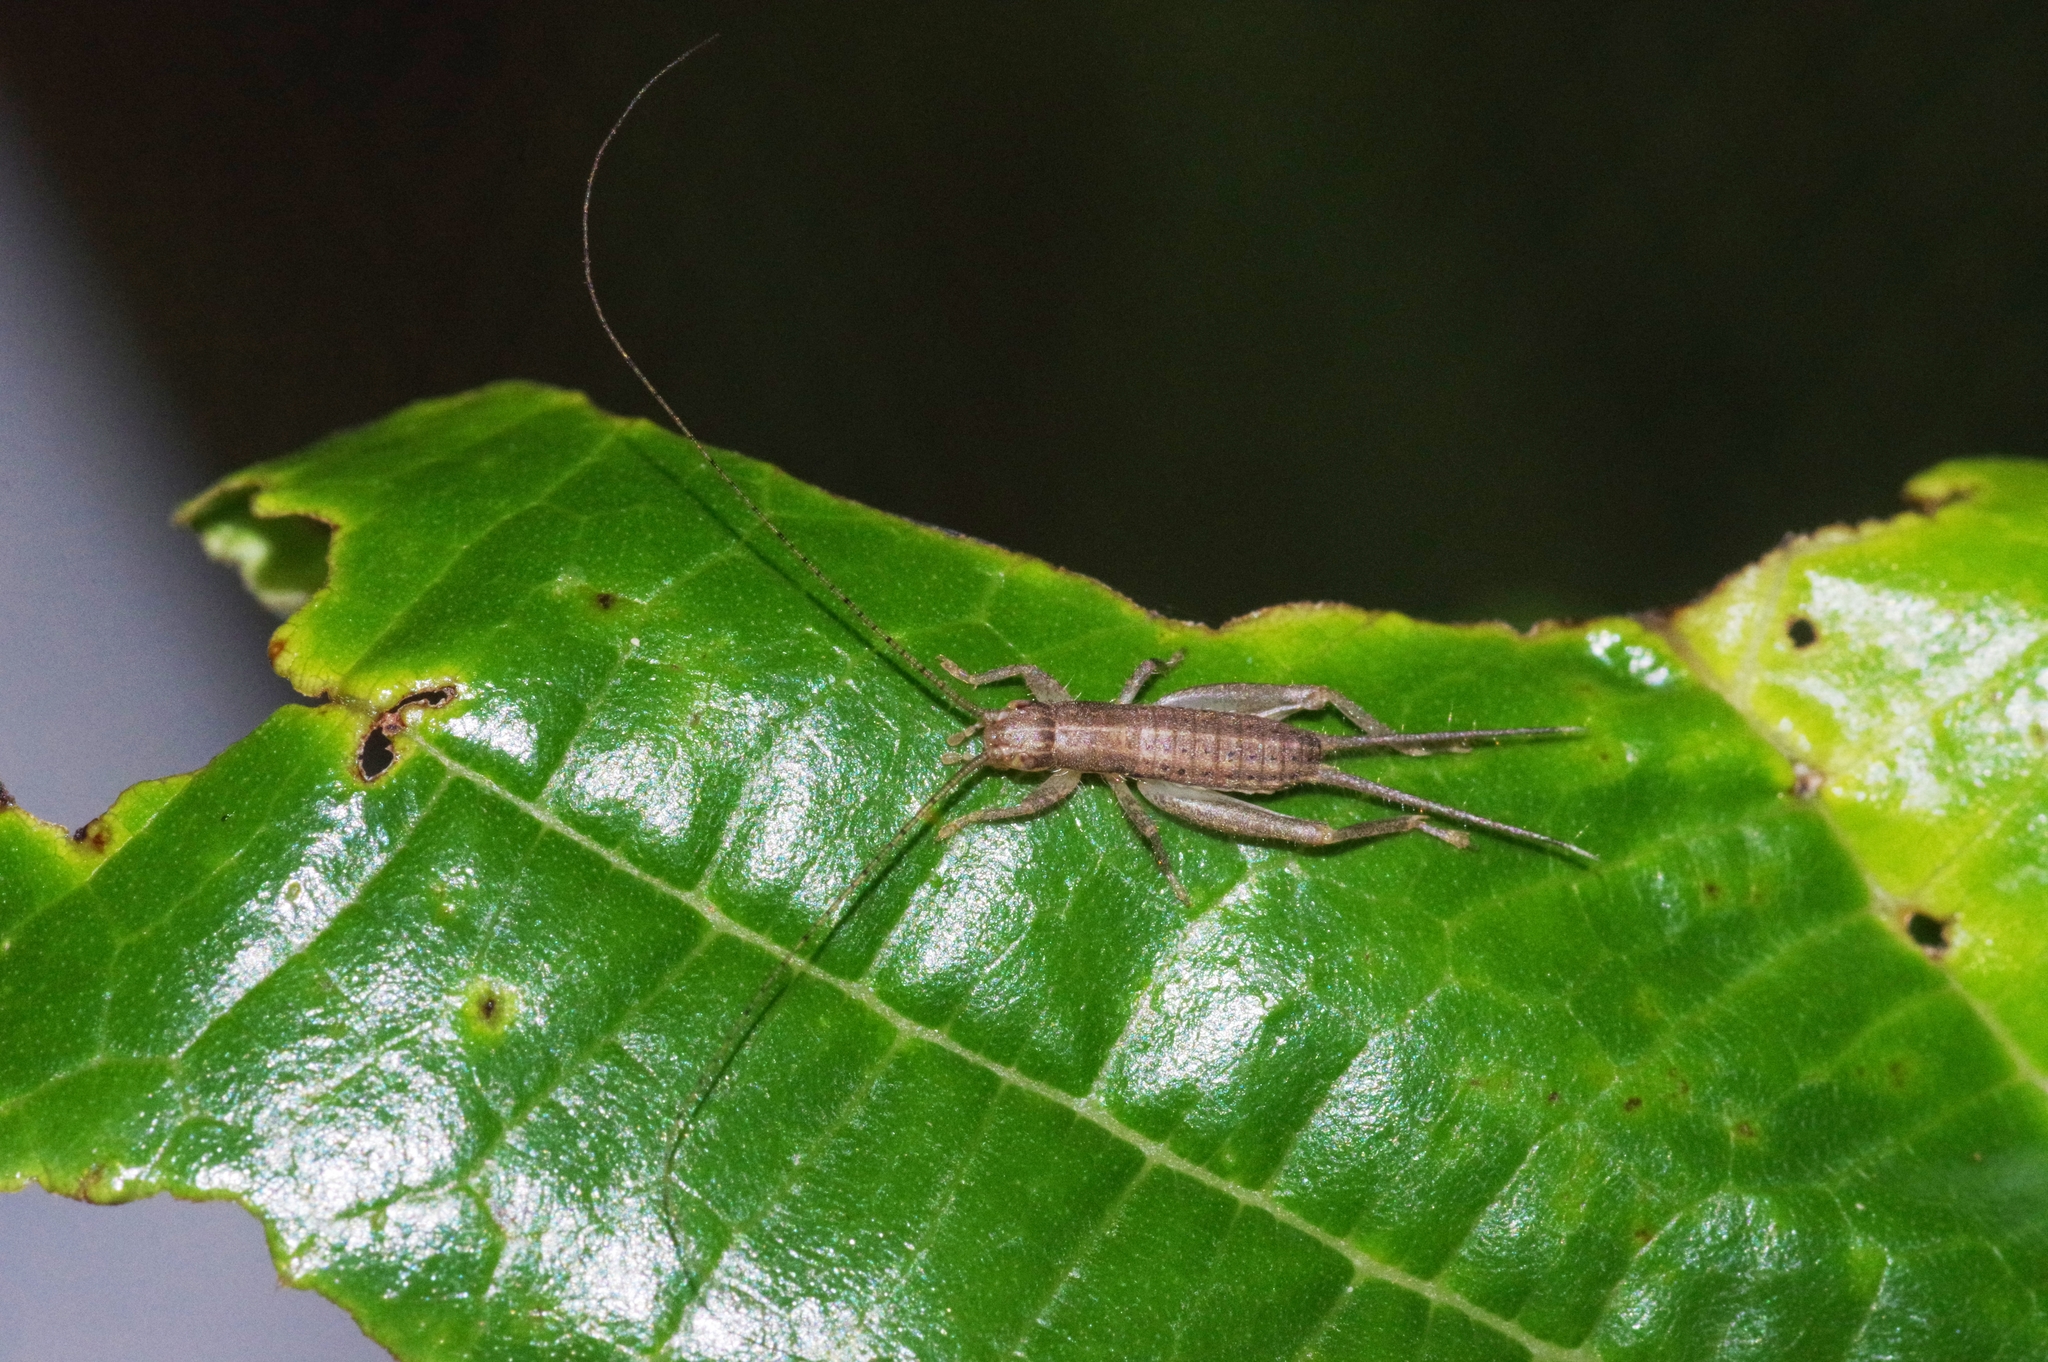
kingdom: Animalia
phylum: Arthropoda
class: Insecta
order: Orthoptera
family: Mogoplistidae
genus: Ornebius
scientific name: Ornebius bimaculatus
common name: Cricket
